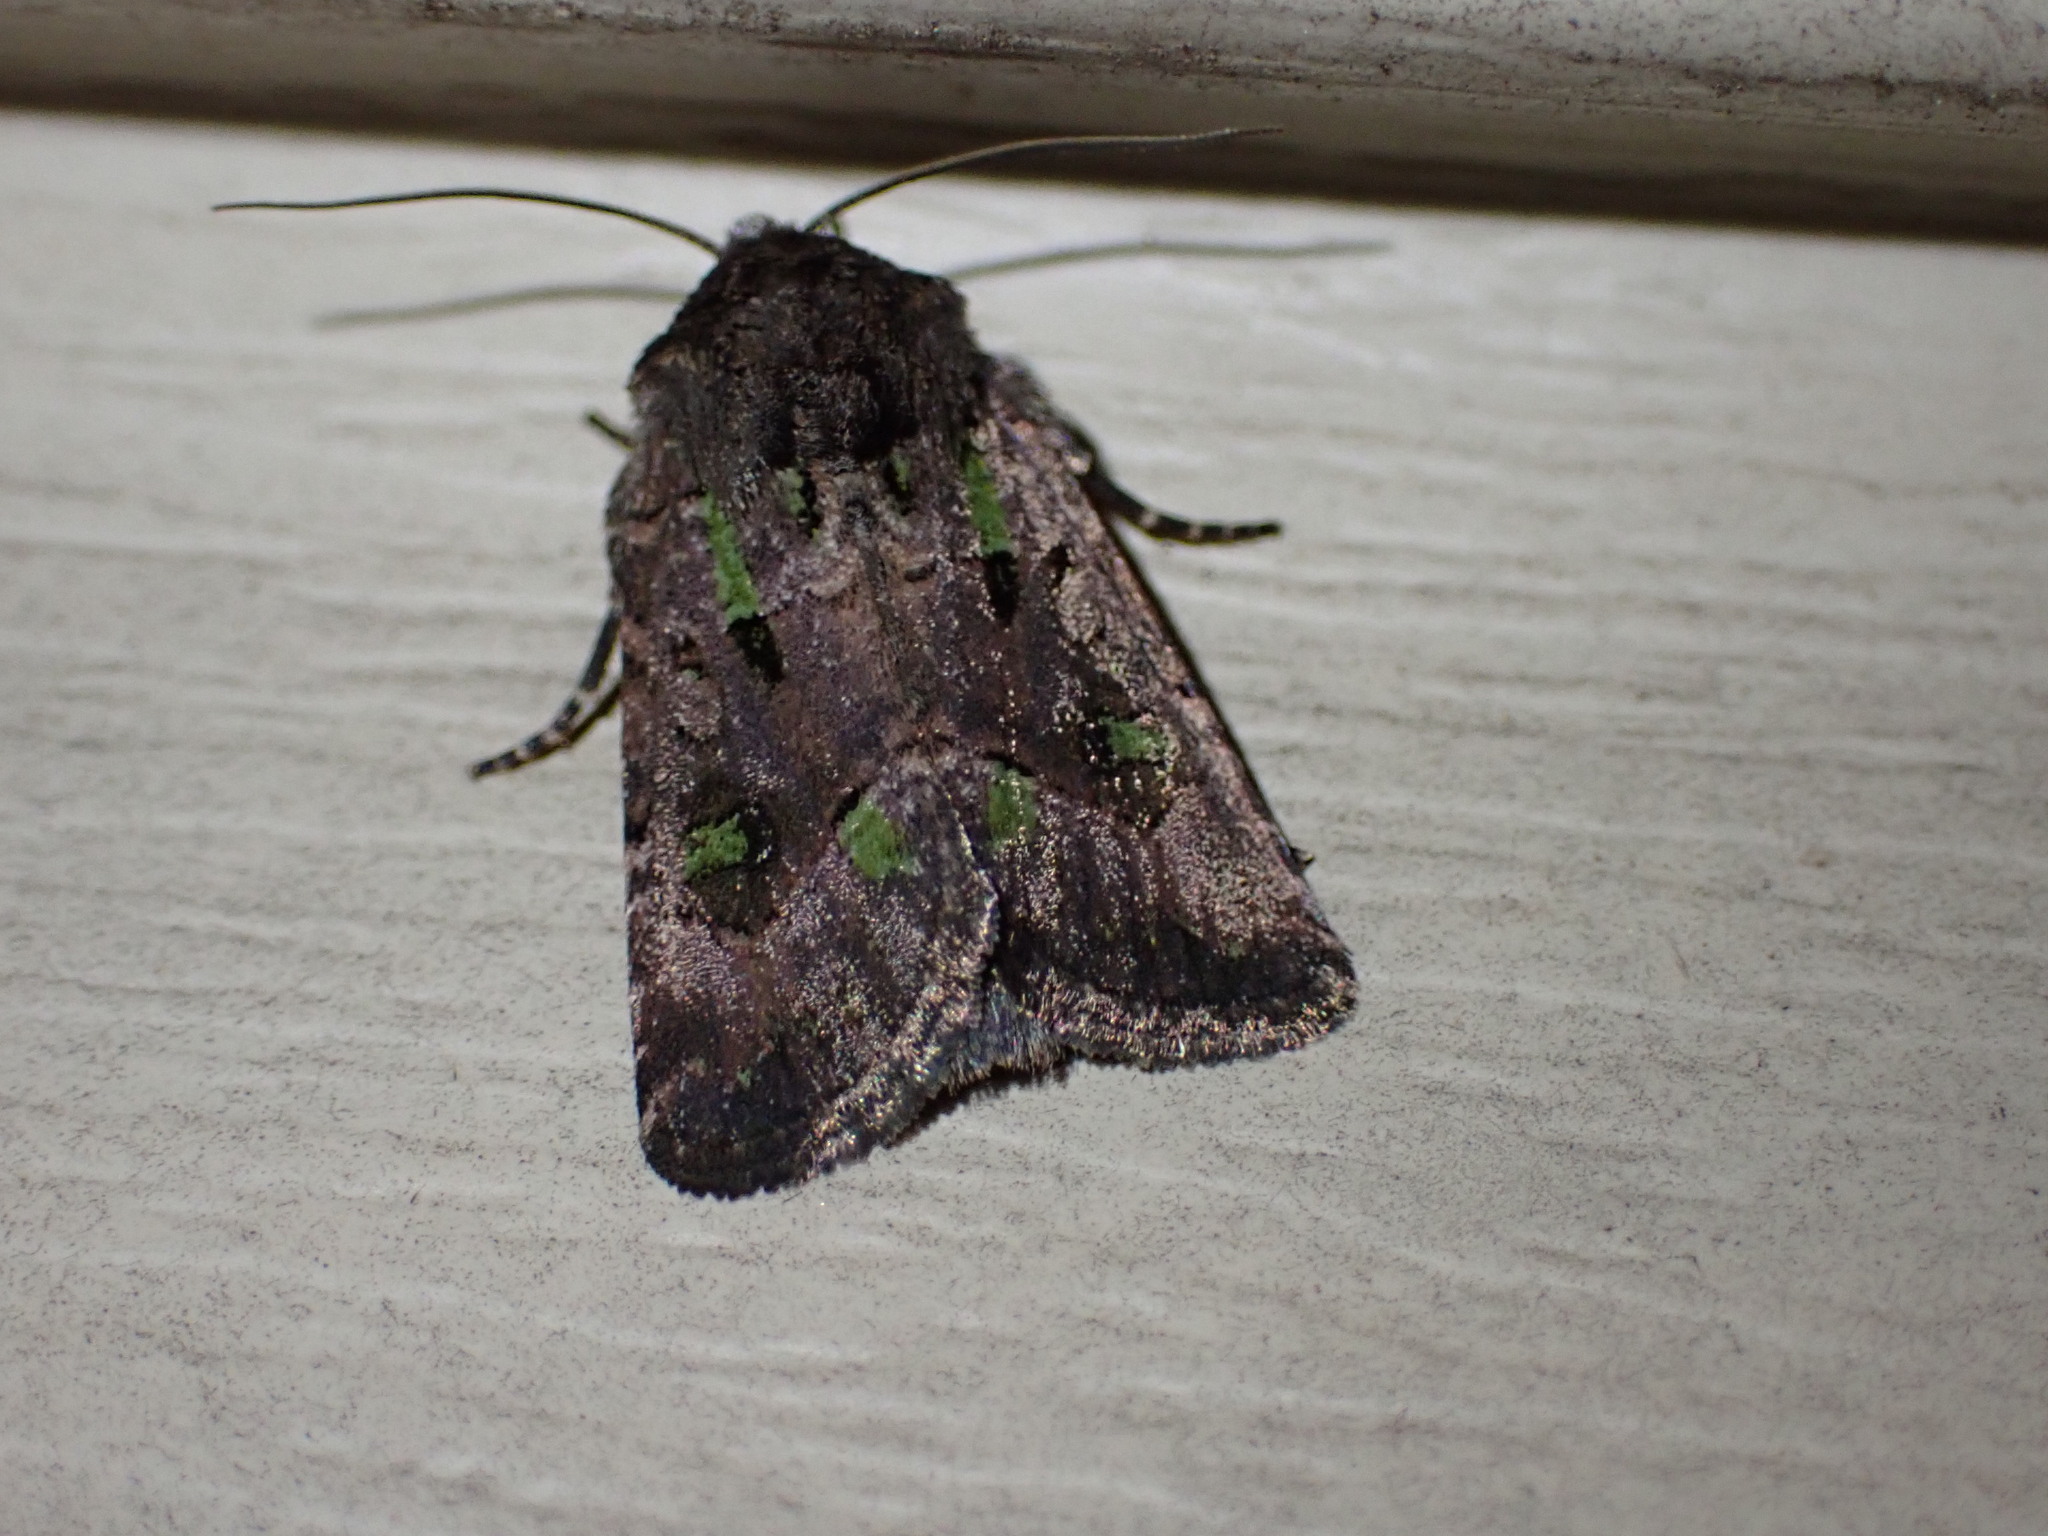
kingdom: Animalia
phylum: Arthropoda
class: Insecta
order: Lepidoptera
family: Noctuidae
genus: Lacinipolia
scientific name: Lacinipolia renigera
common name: Kidney-spotted minor
